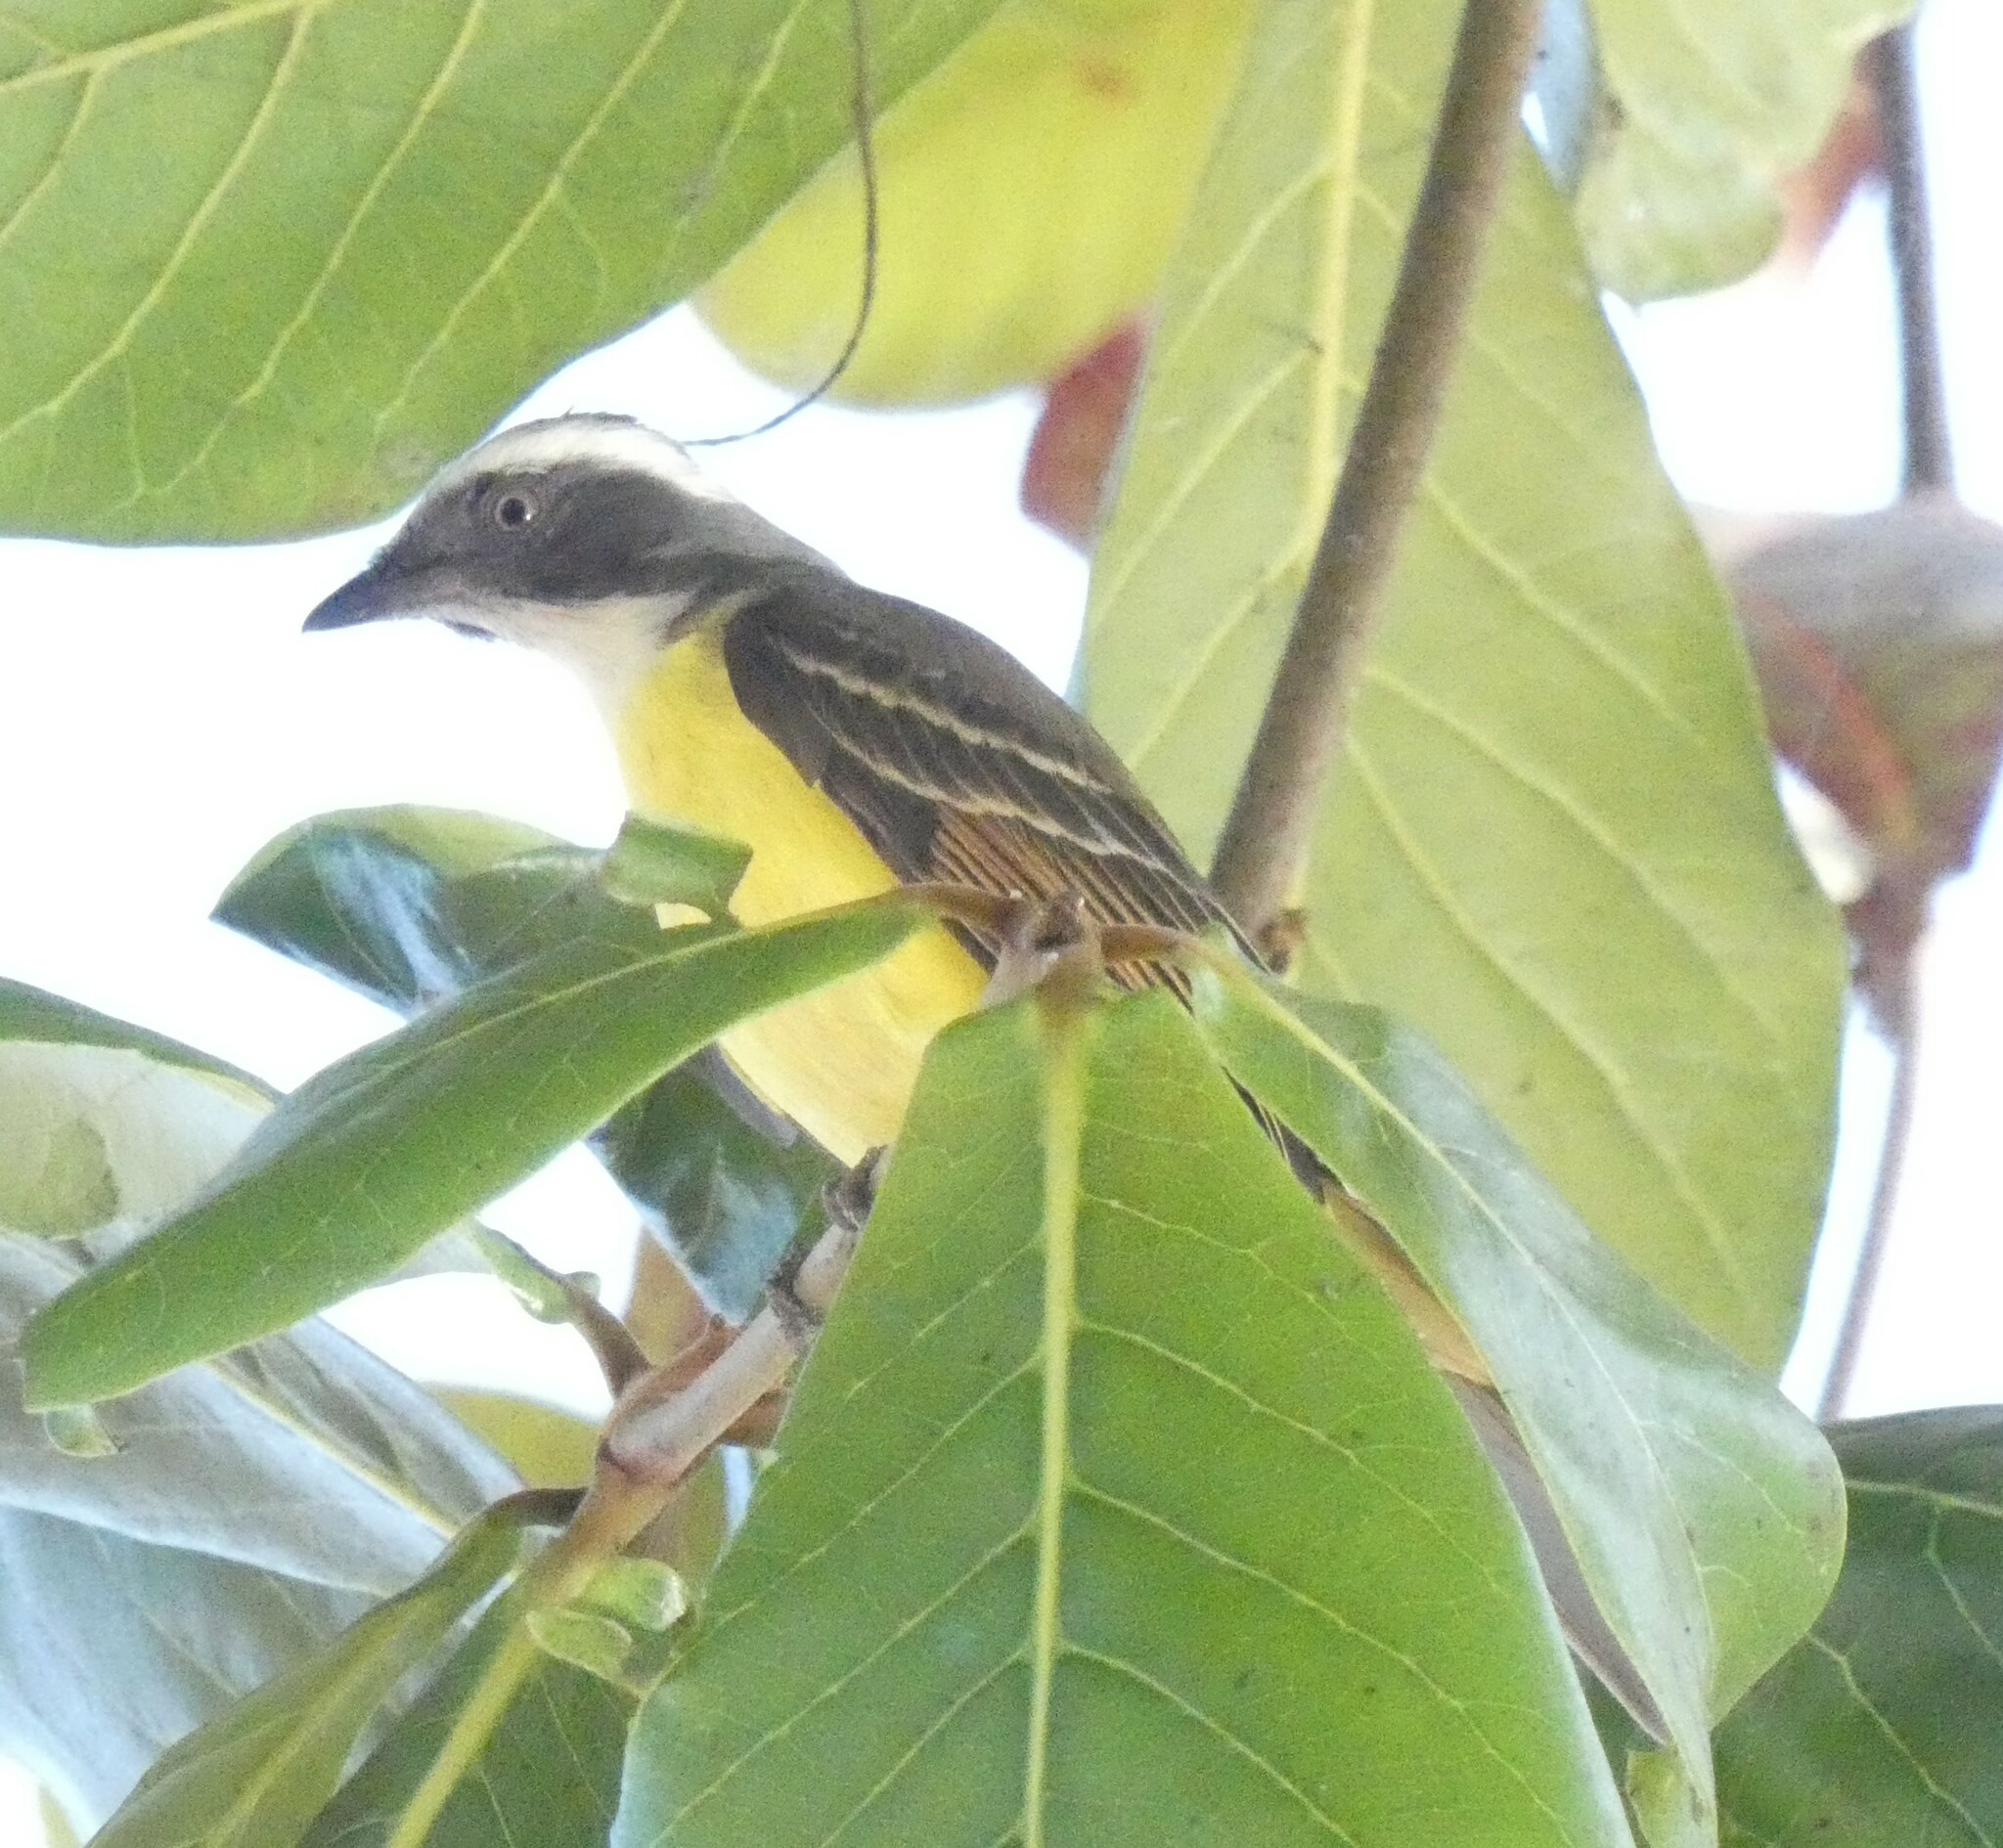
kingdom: Animalia
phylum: Chordata
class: Aves
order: Passeriformes
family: Tyrannidae
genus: Myiozetetes
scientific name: Myiozetetes similis
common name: Social flycatcher
